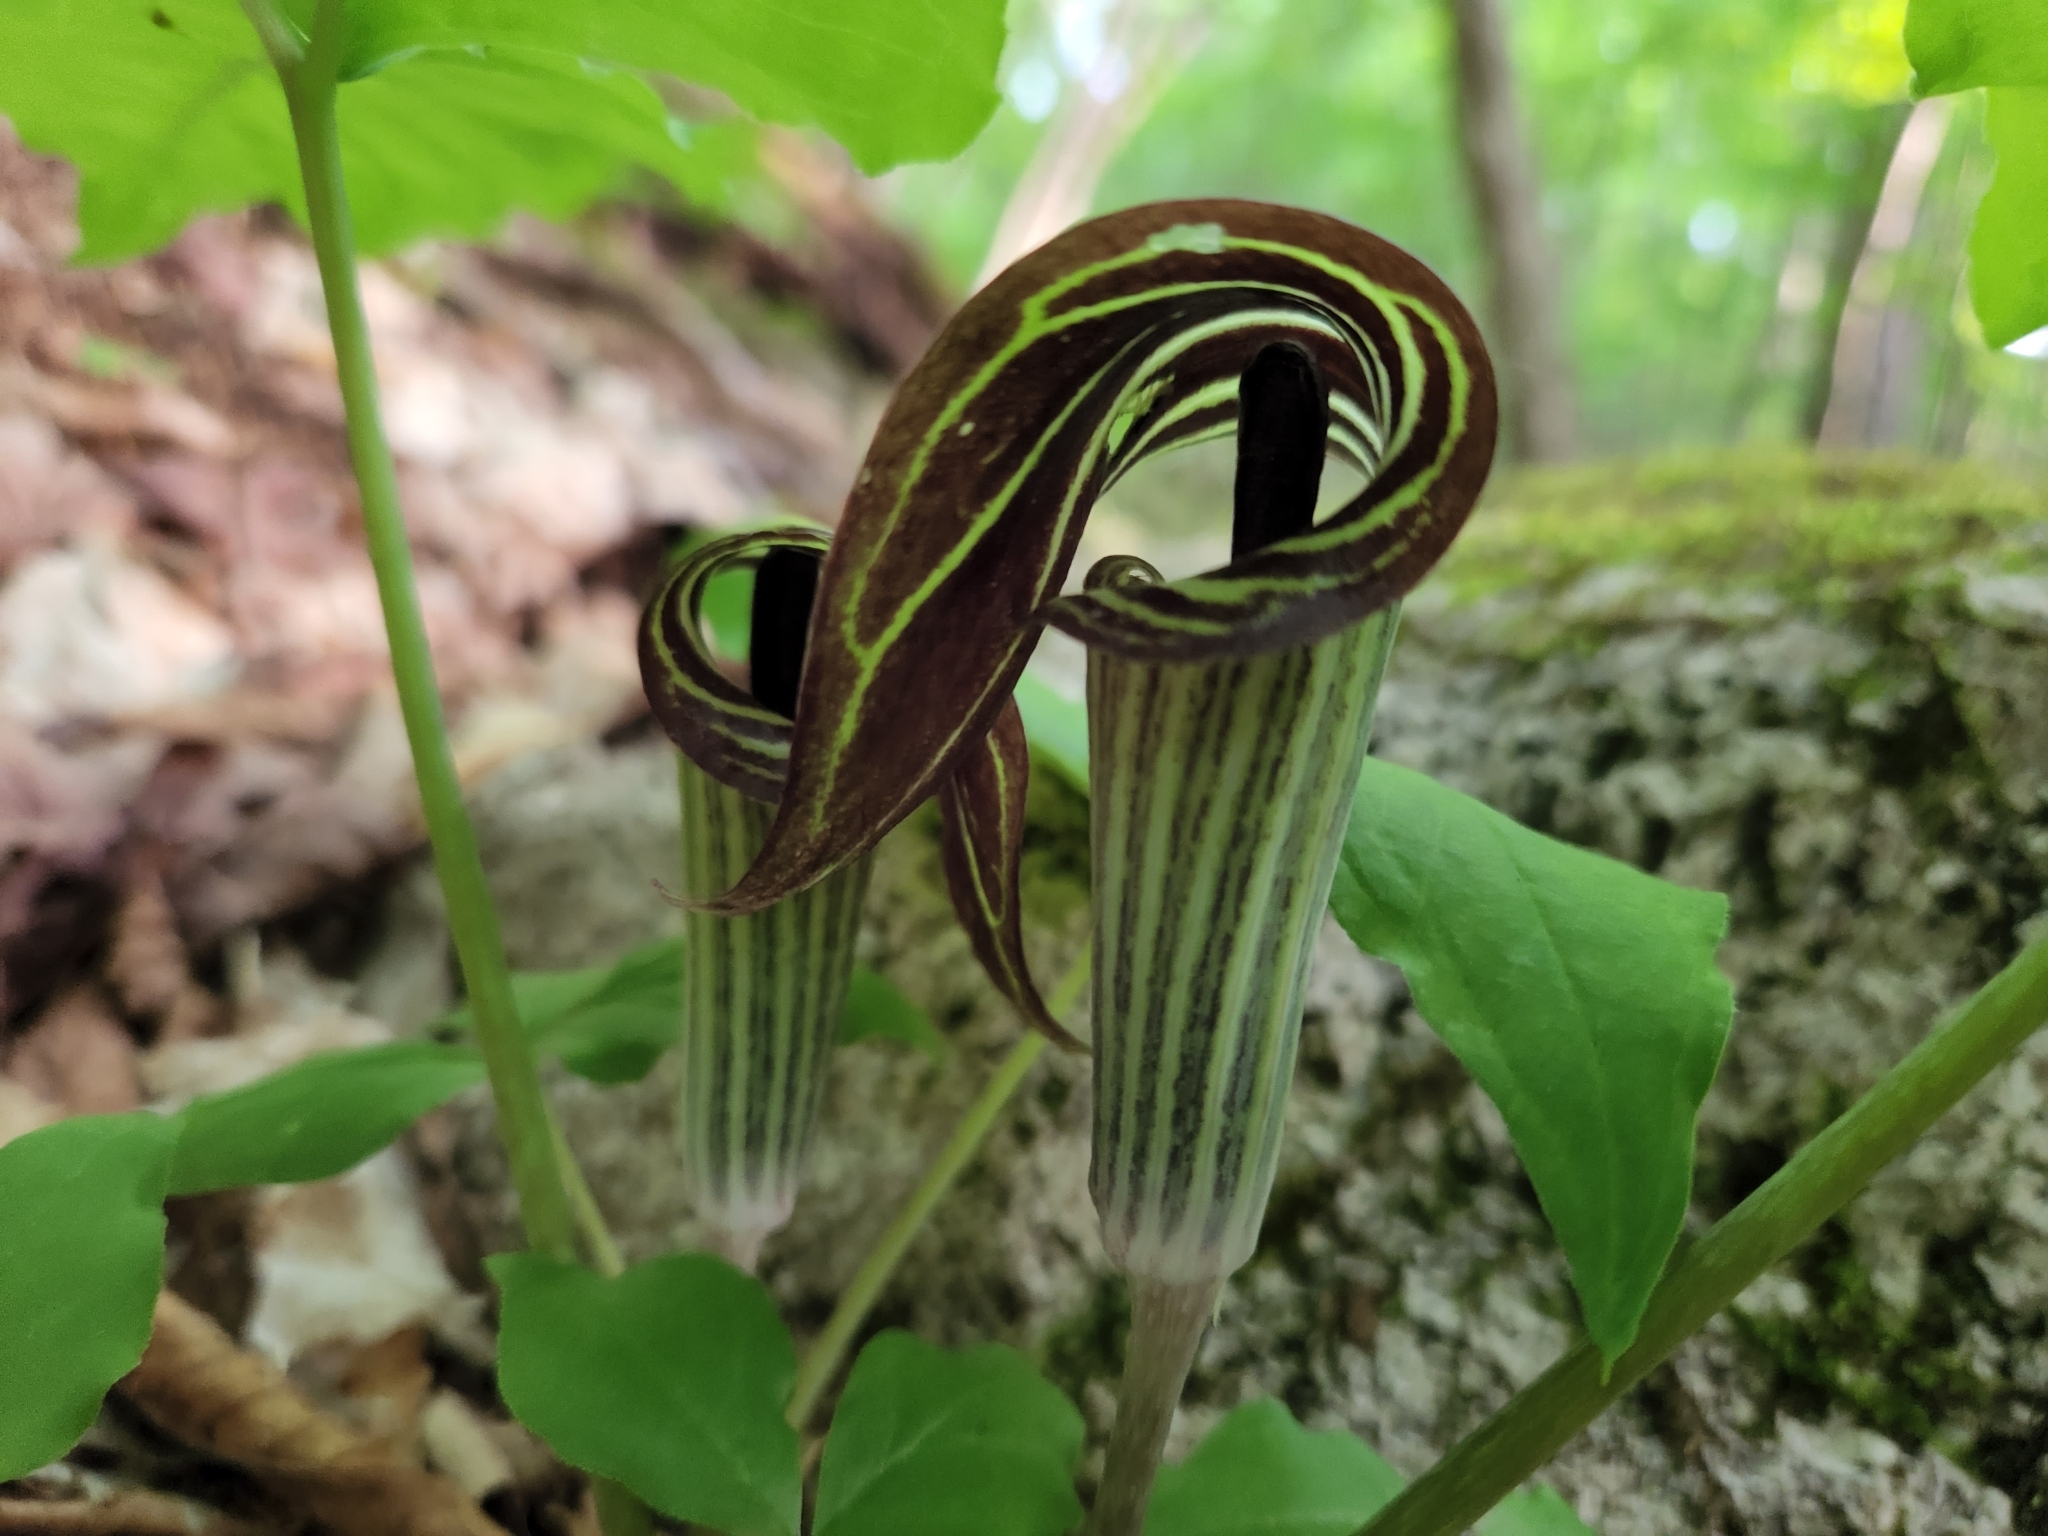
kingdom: Plantae
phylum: Tracheophyta
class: Liliopsida
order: Alismatales
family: Araceae
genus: Arisaema
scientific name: Arisaema triphyllum
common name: Jack-in-the-pulpit
